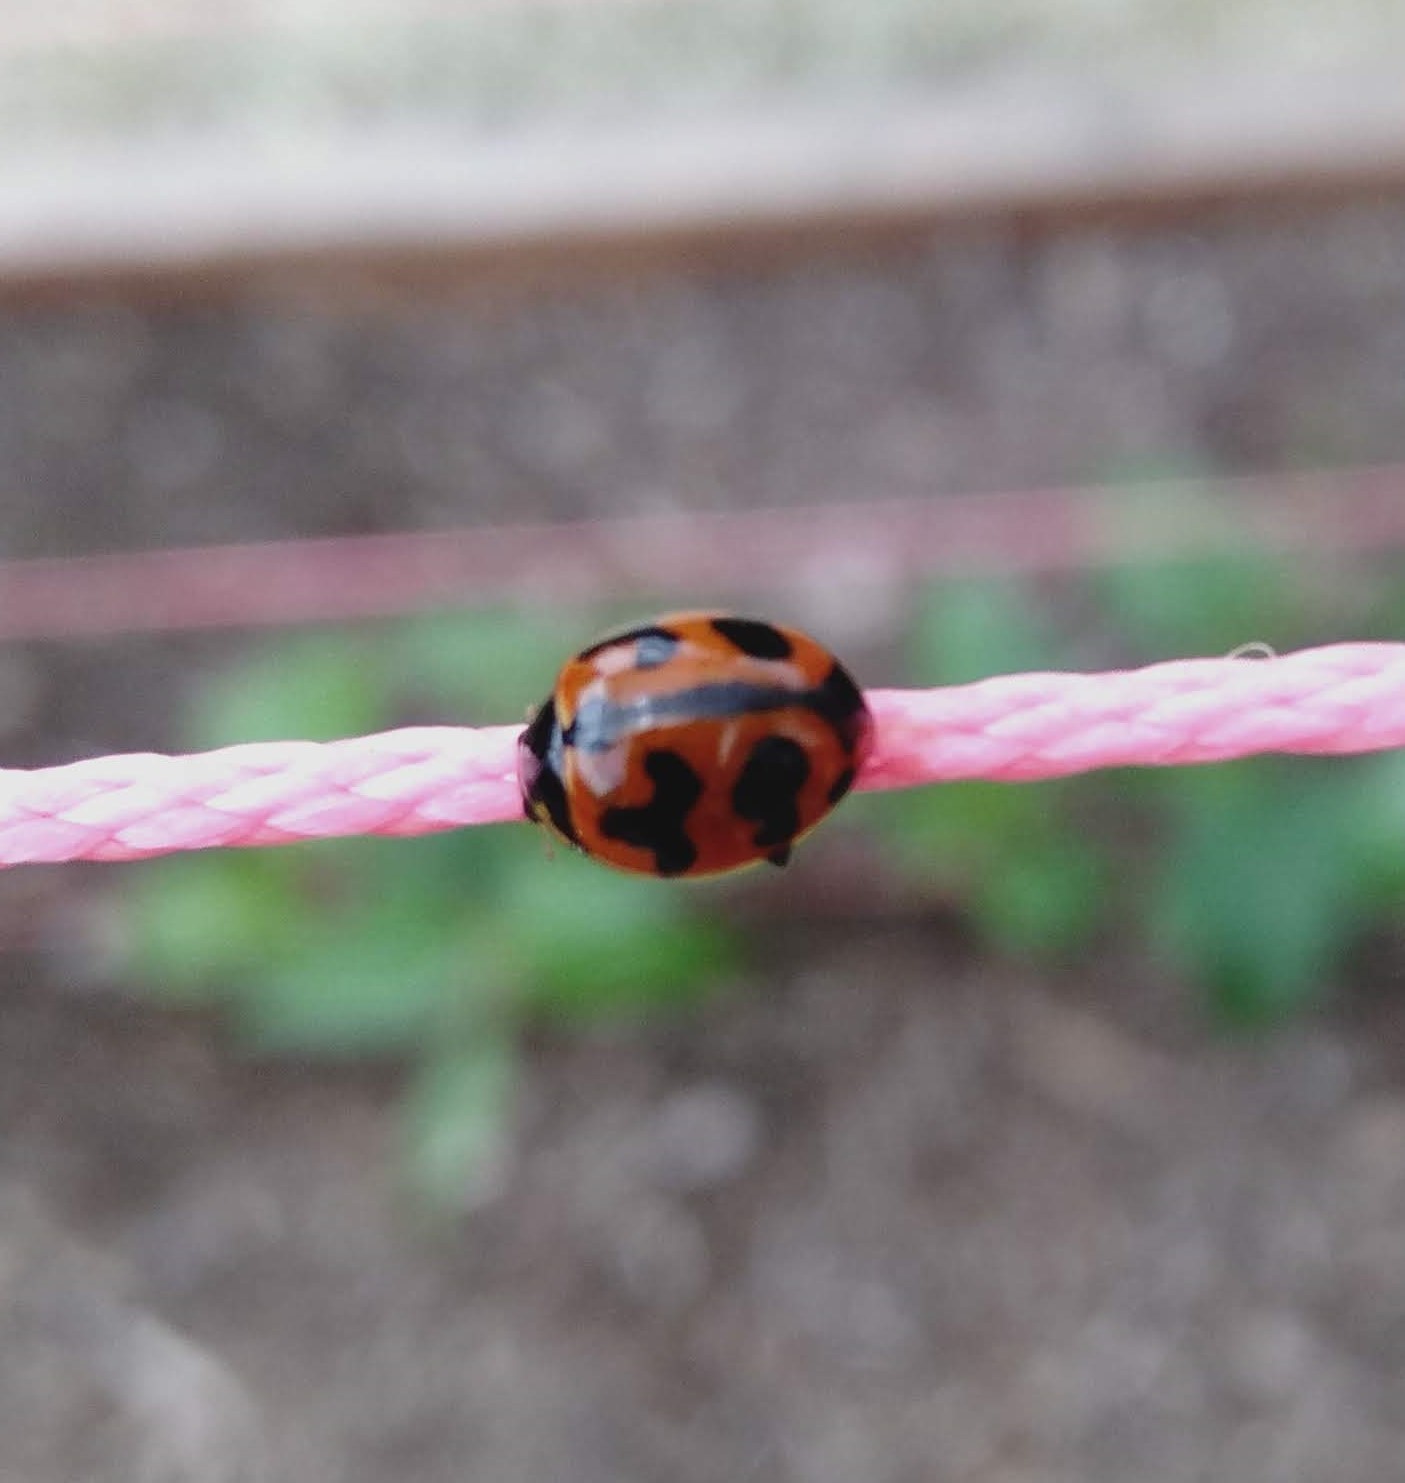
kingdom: Animalia
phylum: Arthropoda
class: Insecta
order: Coleoptera
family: Coccinellidae
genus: Coccinella
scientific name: Coccinella transversalis
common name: Transverse lady beetle
